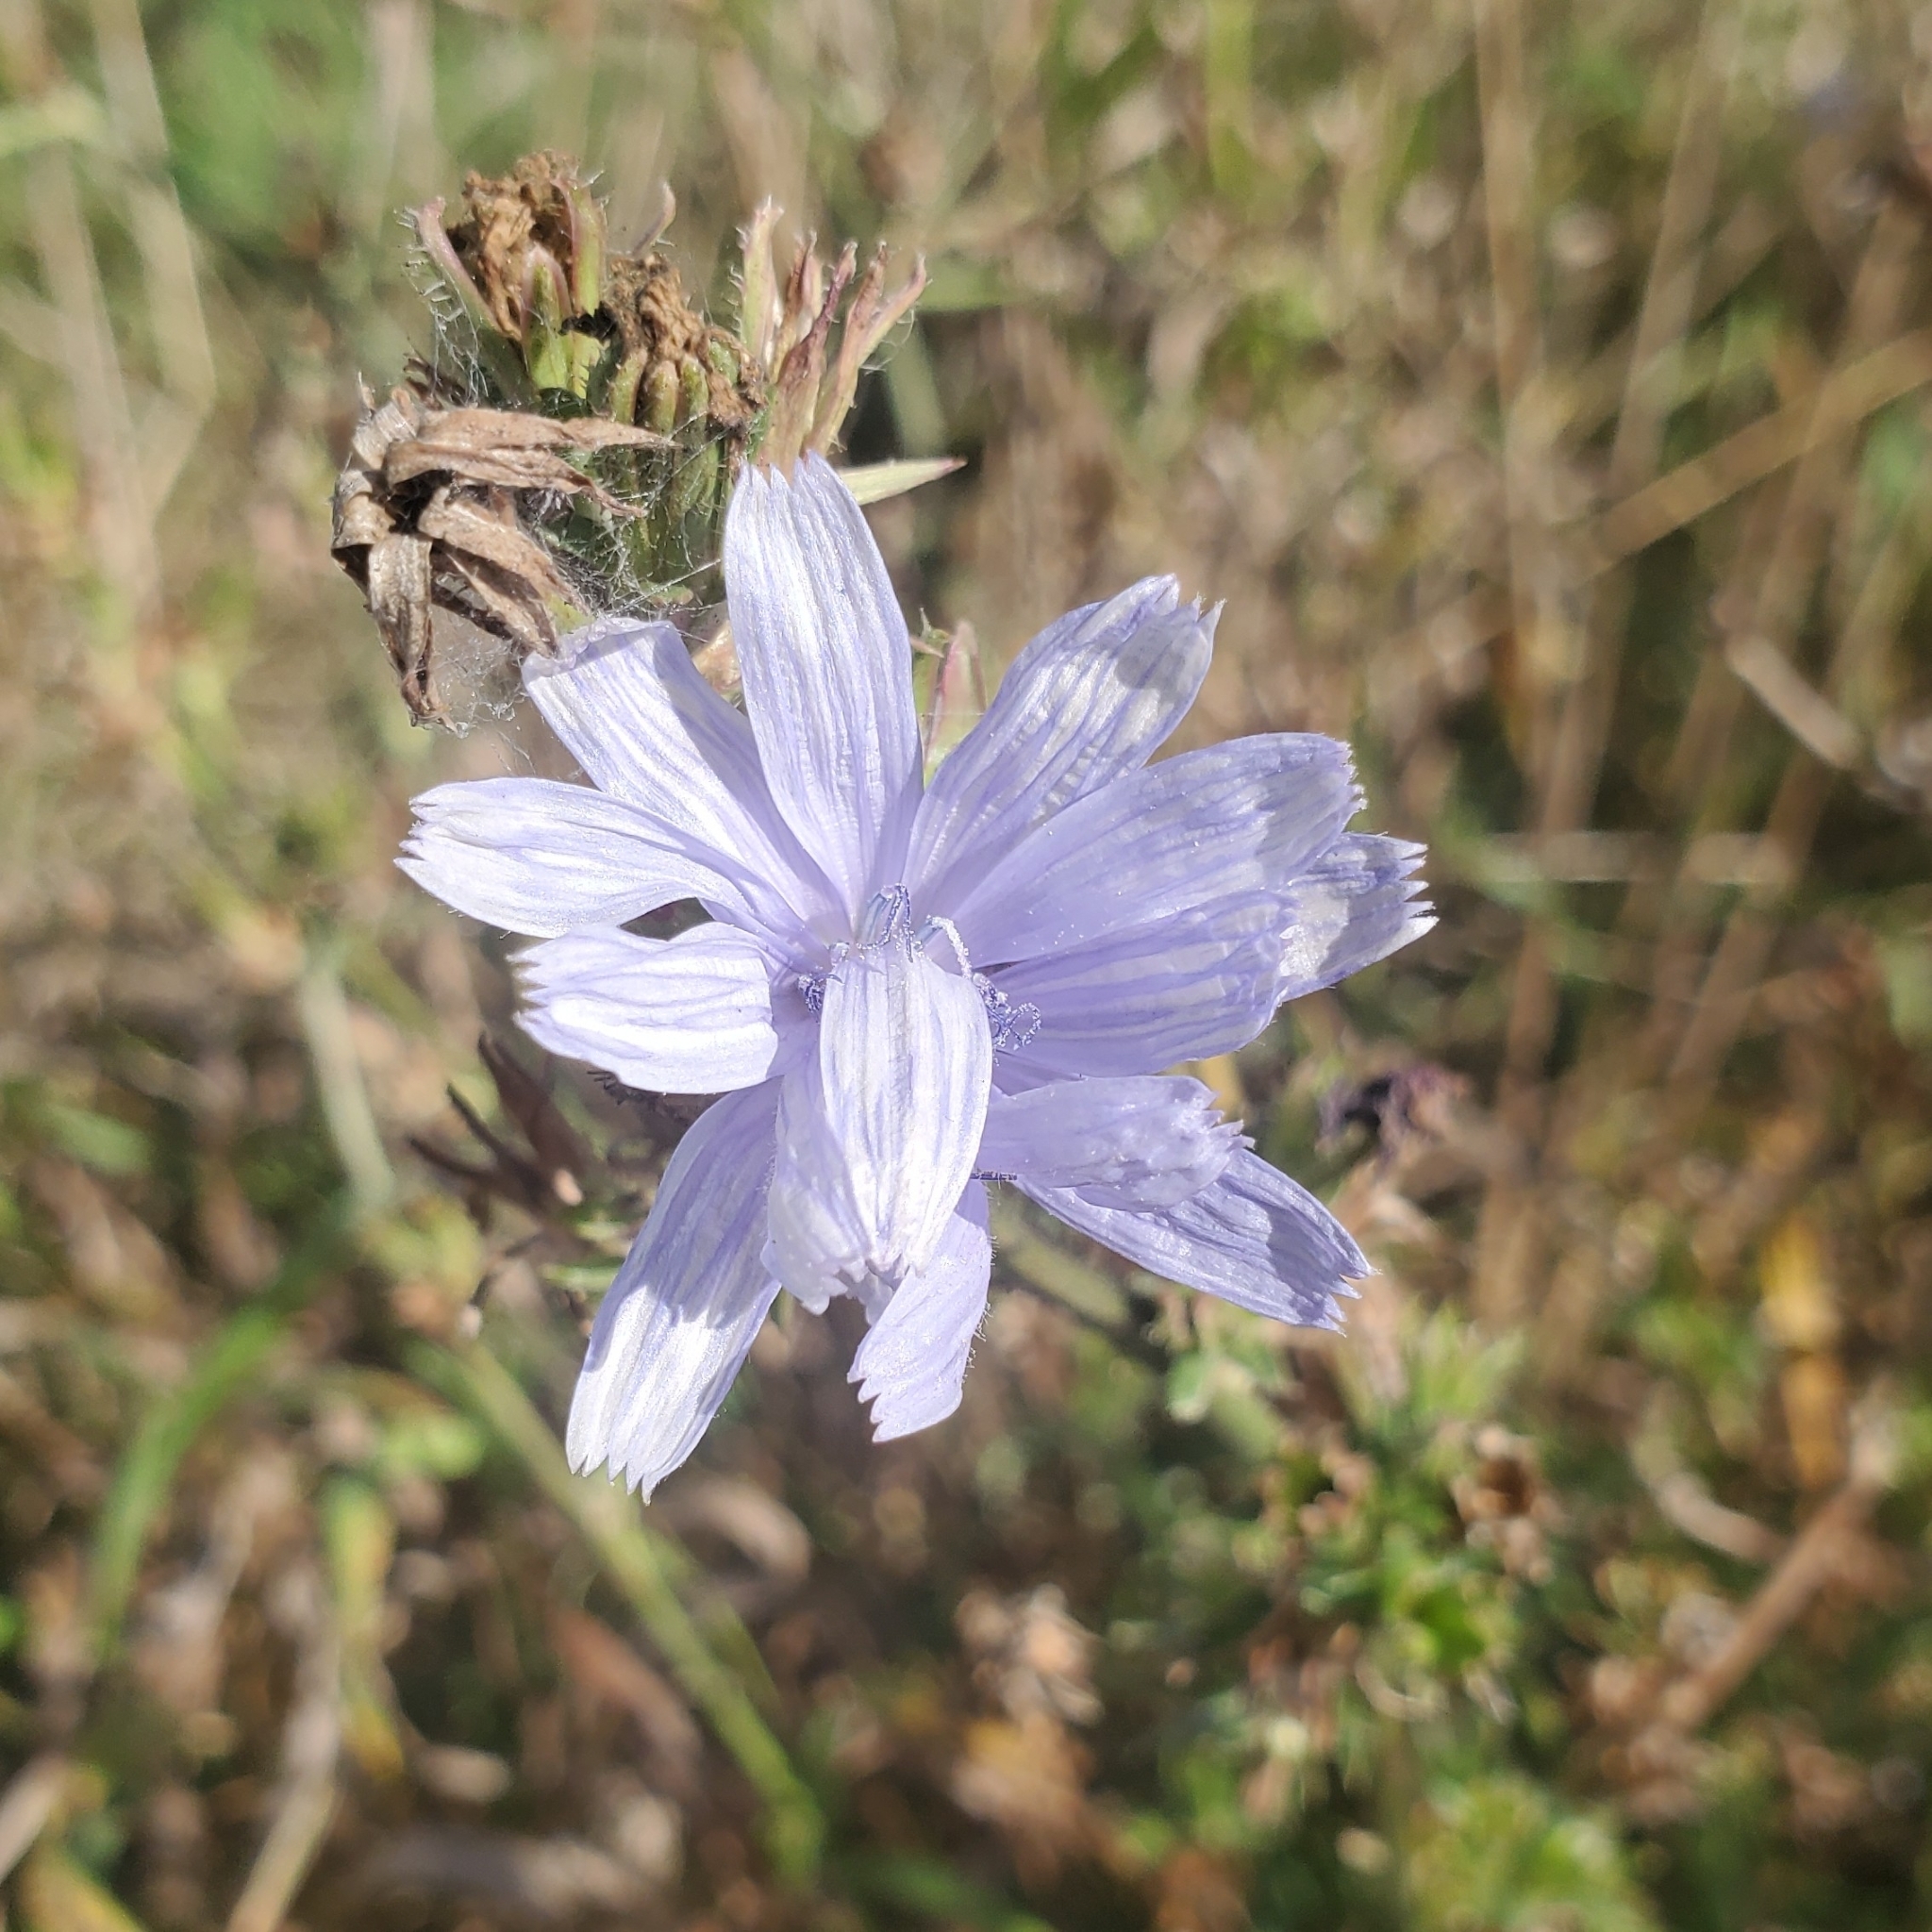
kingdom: Plantae
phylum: Tracheophyta
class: Magnoliopsida
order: Asterales
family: Asteraceae
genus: Cichorium
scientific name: Cichorium intybus
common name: Chicory
